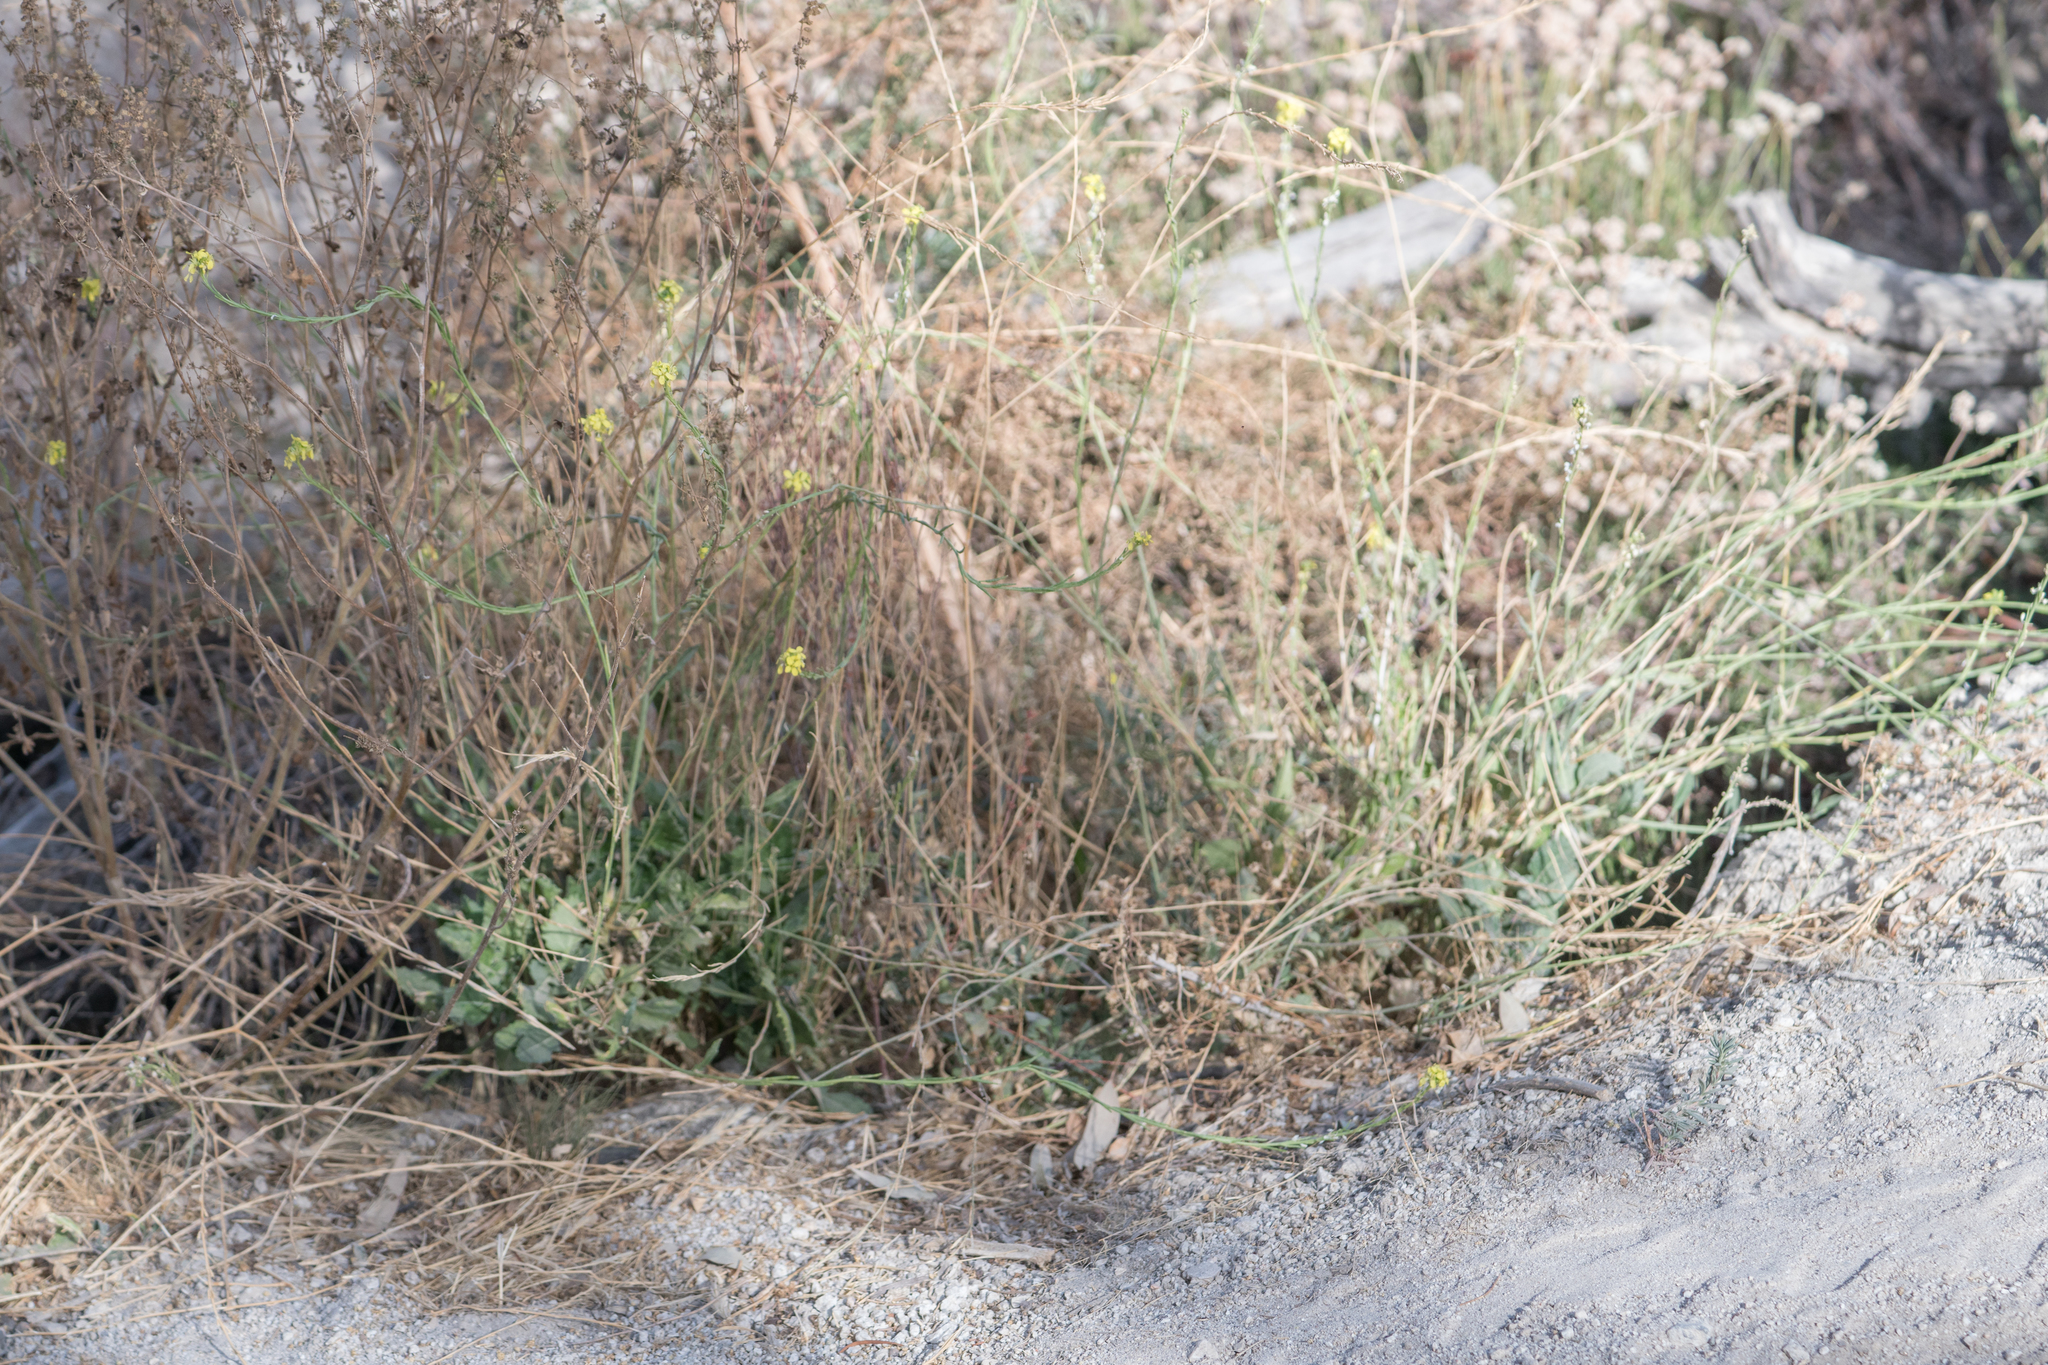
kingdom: Plantae
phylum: Tracheophyta
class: Magnoliopsida
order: Brassicales
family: Brassicaceae
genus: Hirschfeldia
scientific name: Hirschfeldia incana
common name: Hoary mustard
